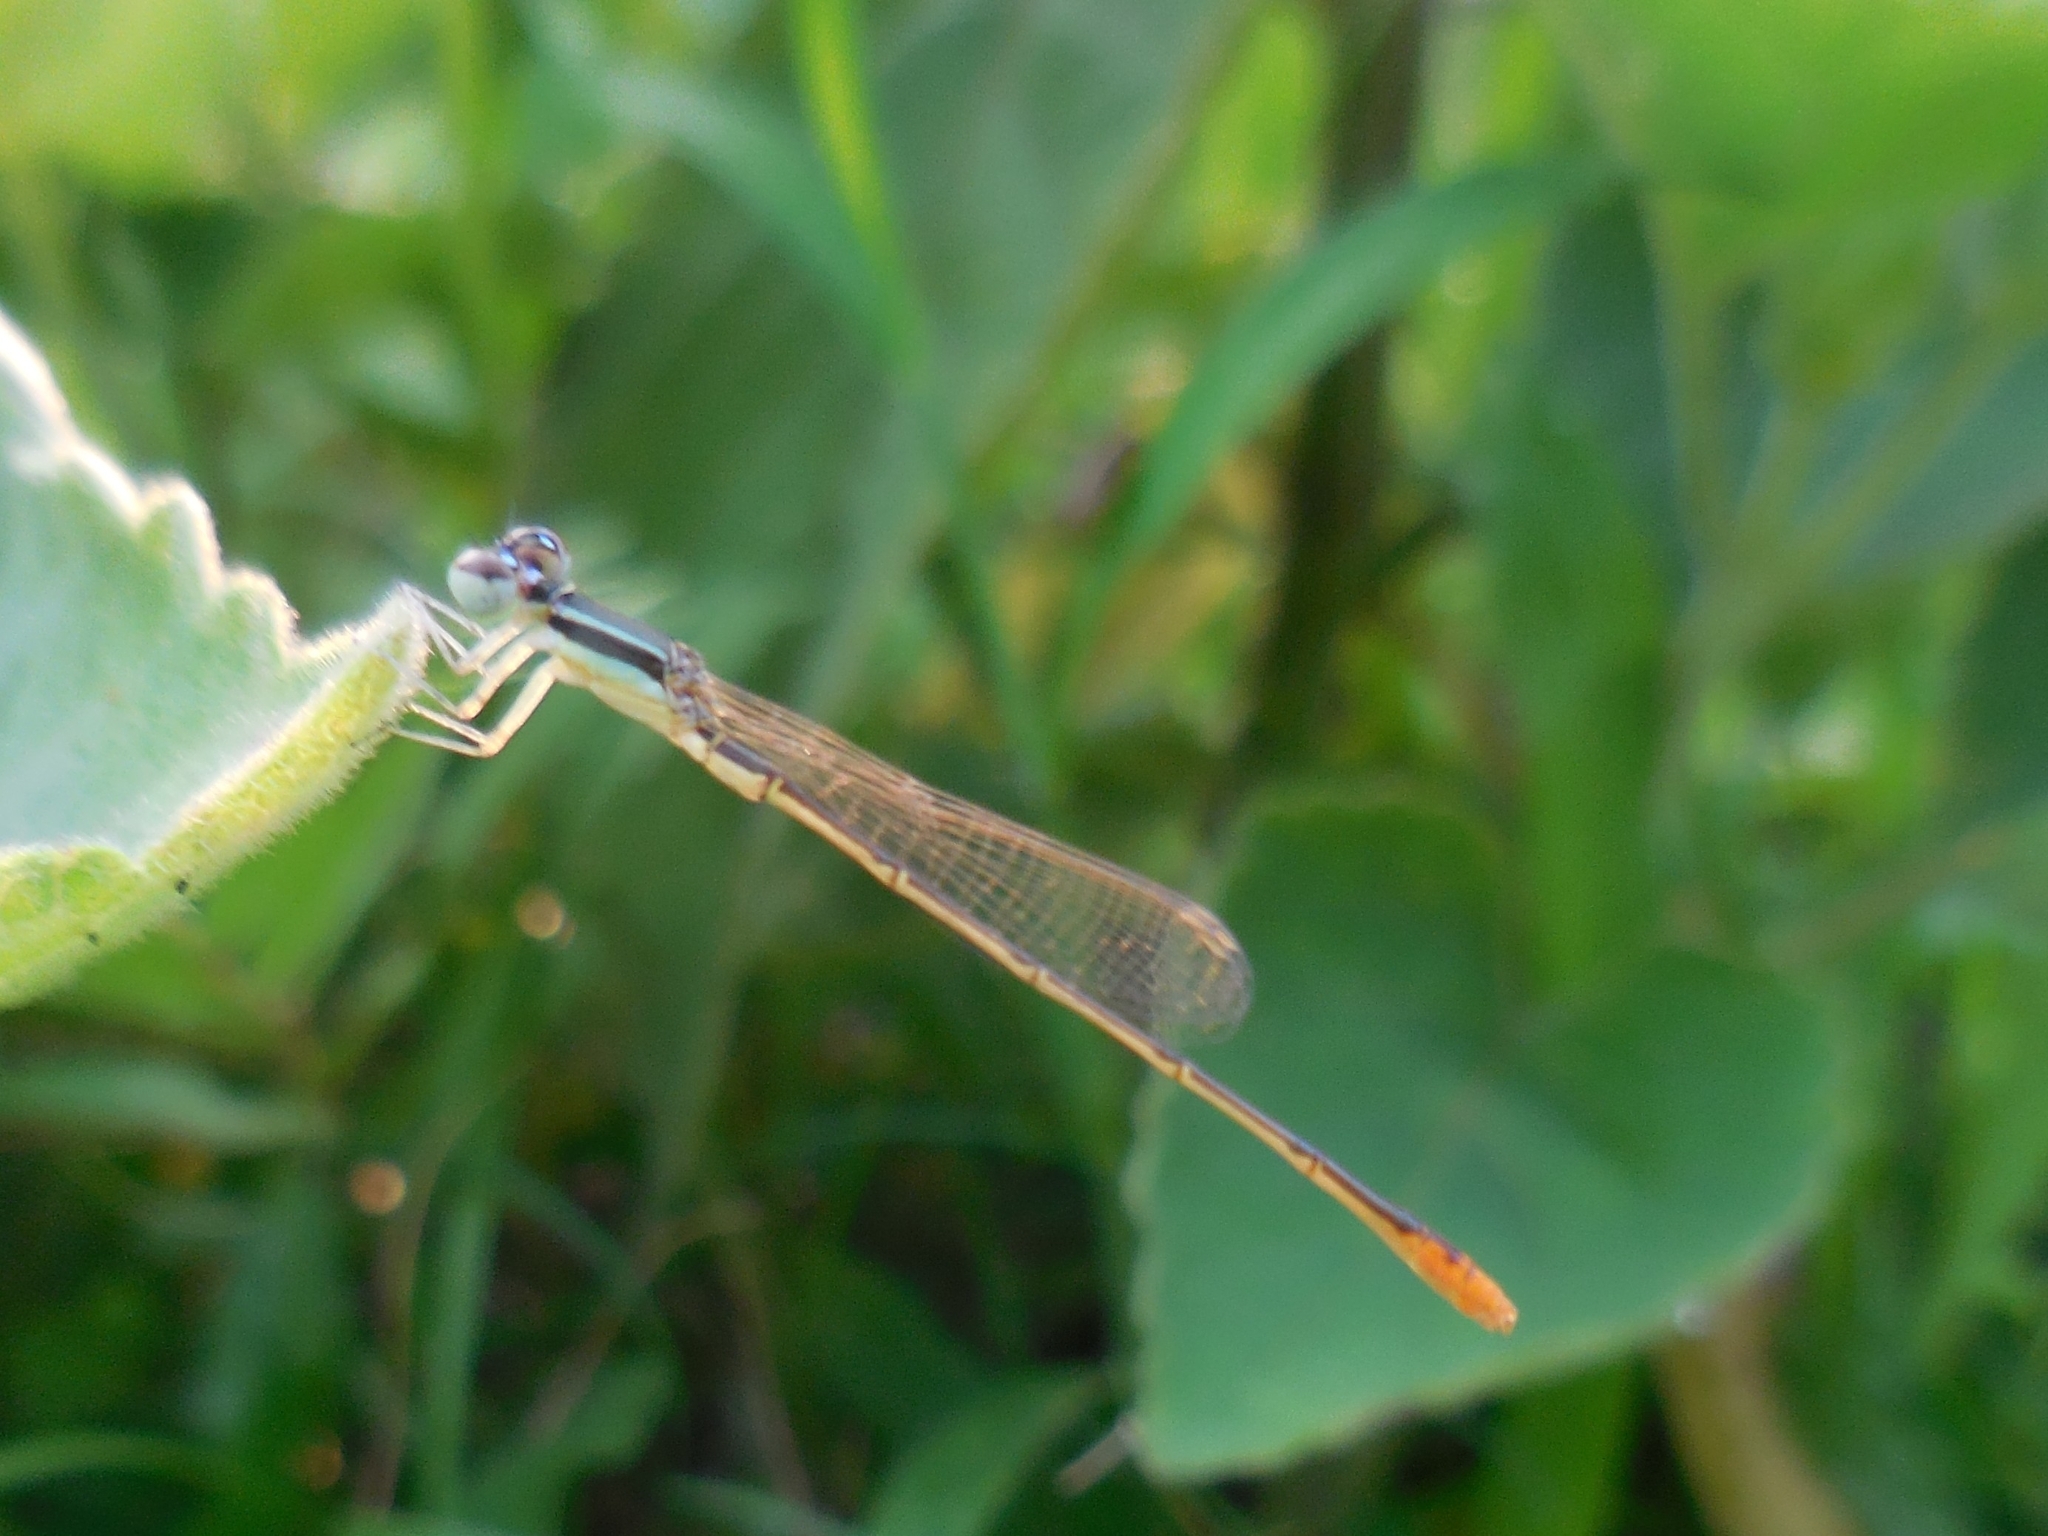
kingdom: Animalia
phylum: Arthropoda
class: Insecta
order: Odonata
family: Coenagrionidae
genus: Agriocnemis
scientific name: Agriocnemis pygmaea
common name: Pygmy wisp
